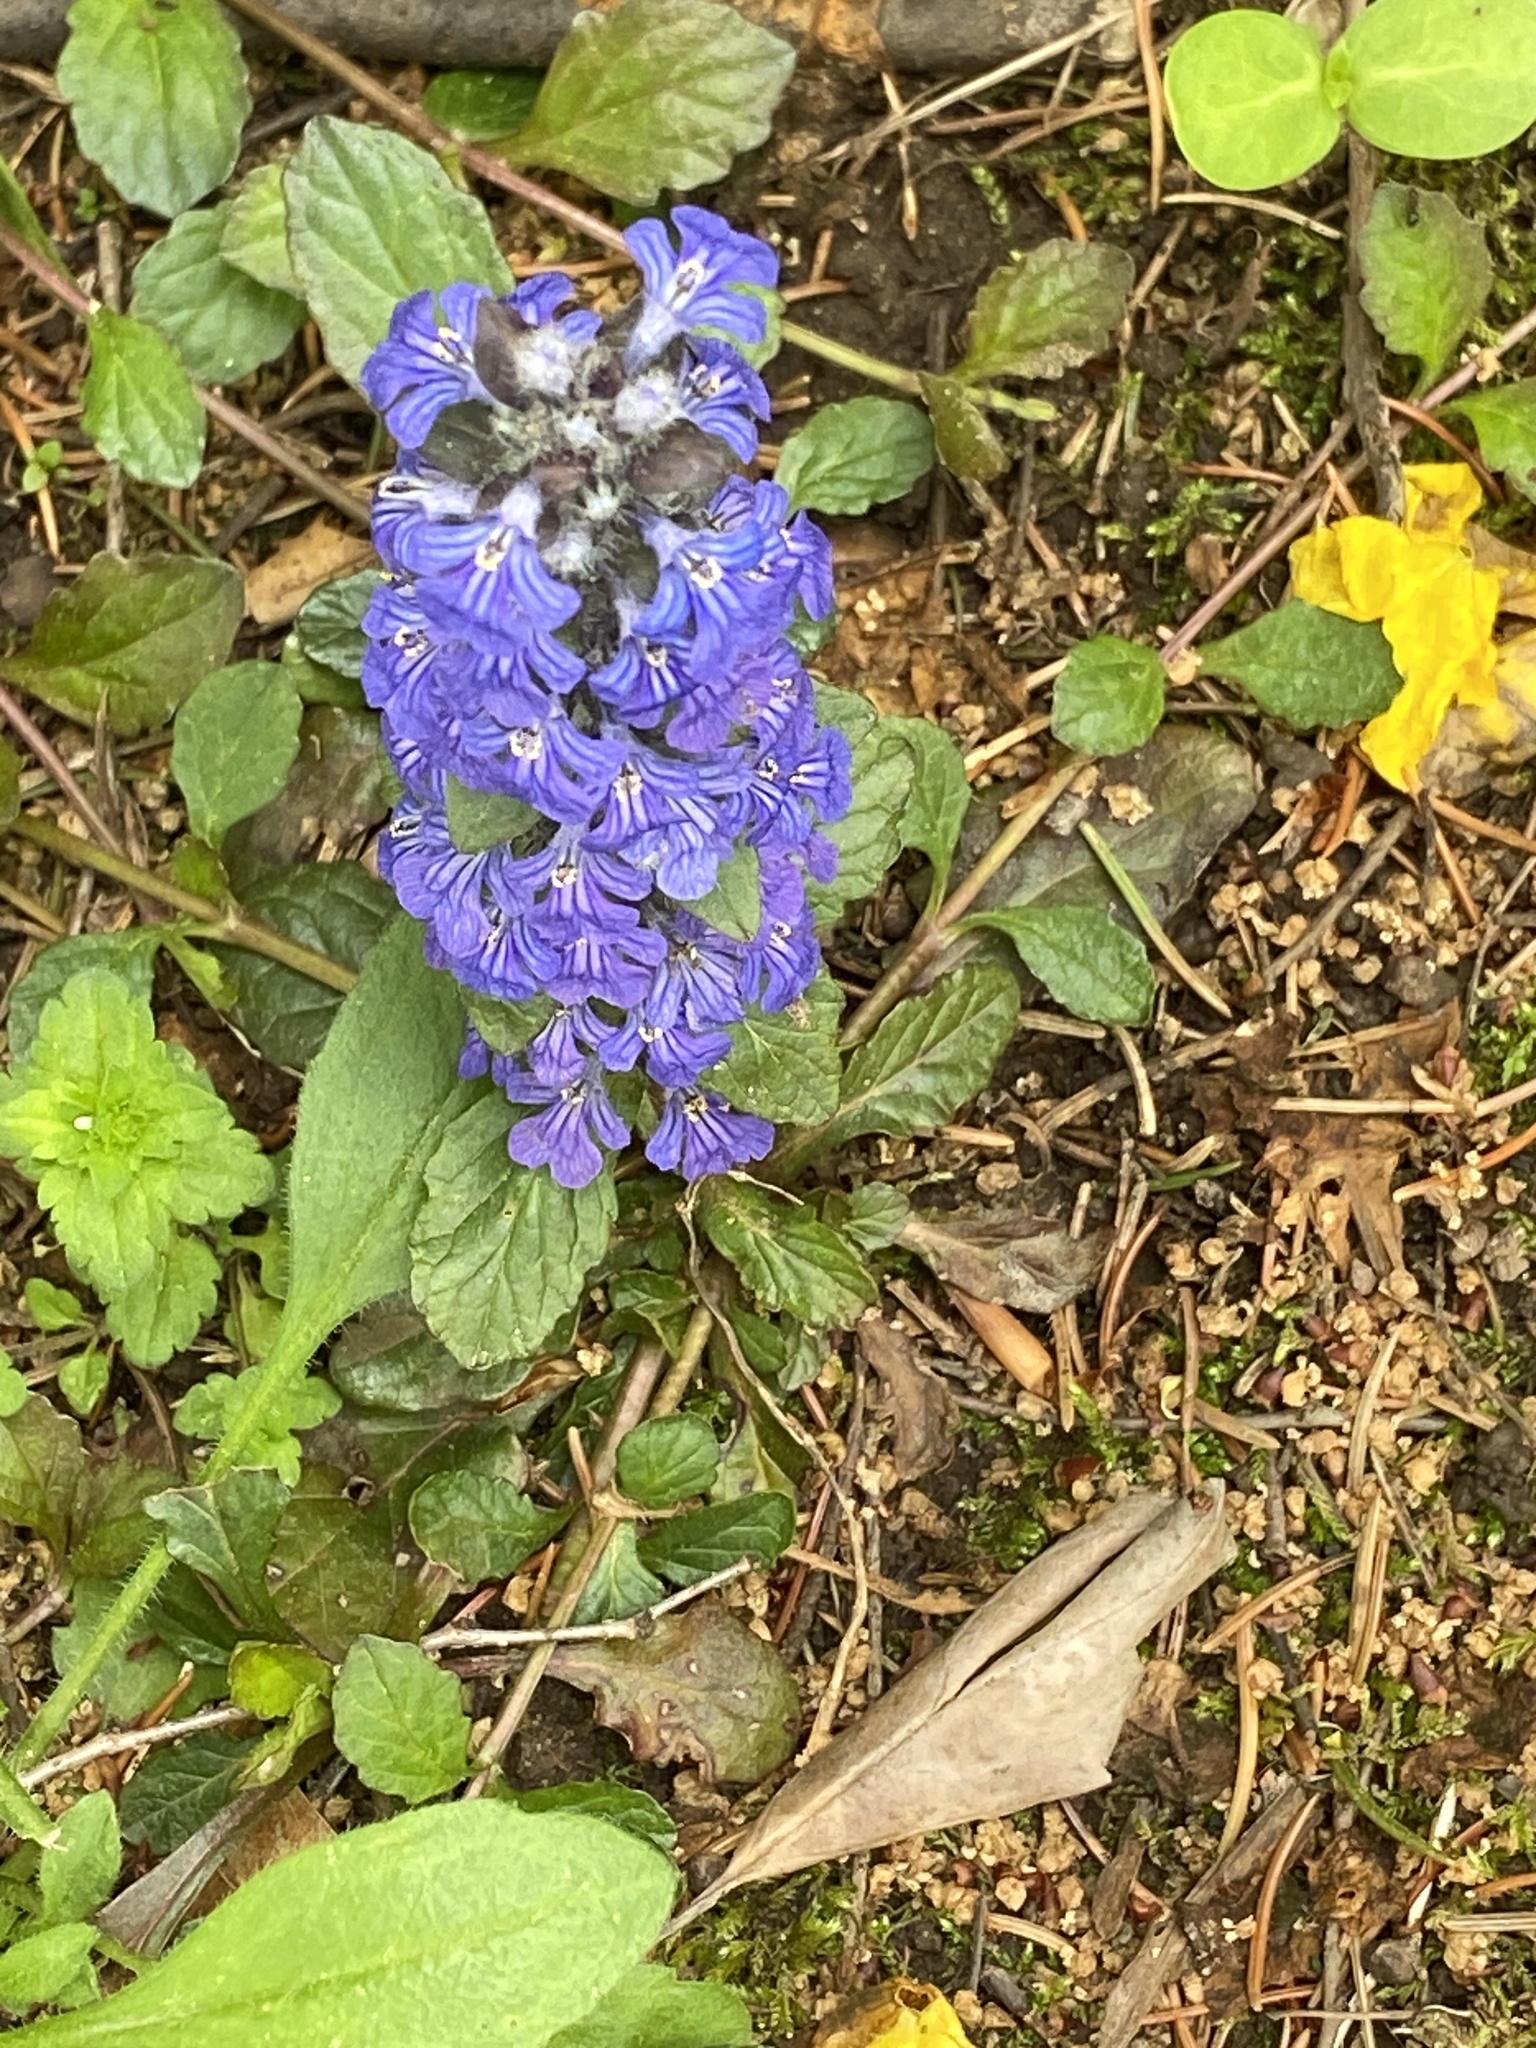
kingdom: Plantae
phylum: Tracheophyta
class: Magnoliopsida
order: Lamiales
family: Lamiaceae
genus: Ajuga
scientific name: Ajuga reptans
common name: Bugle
